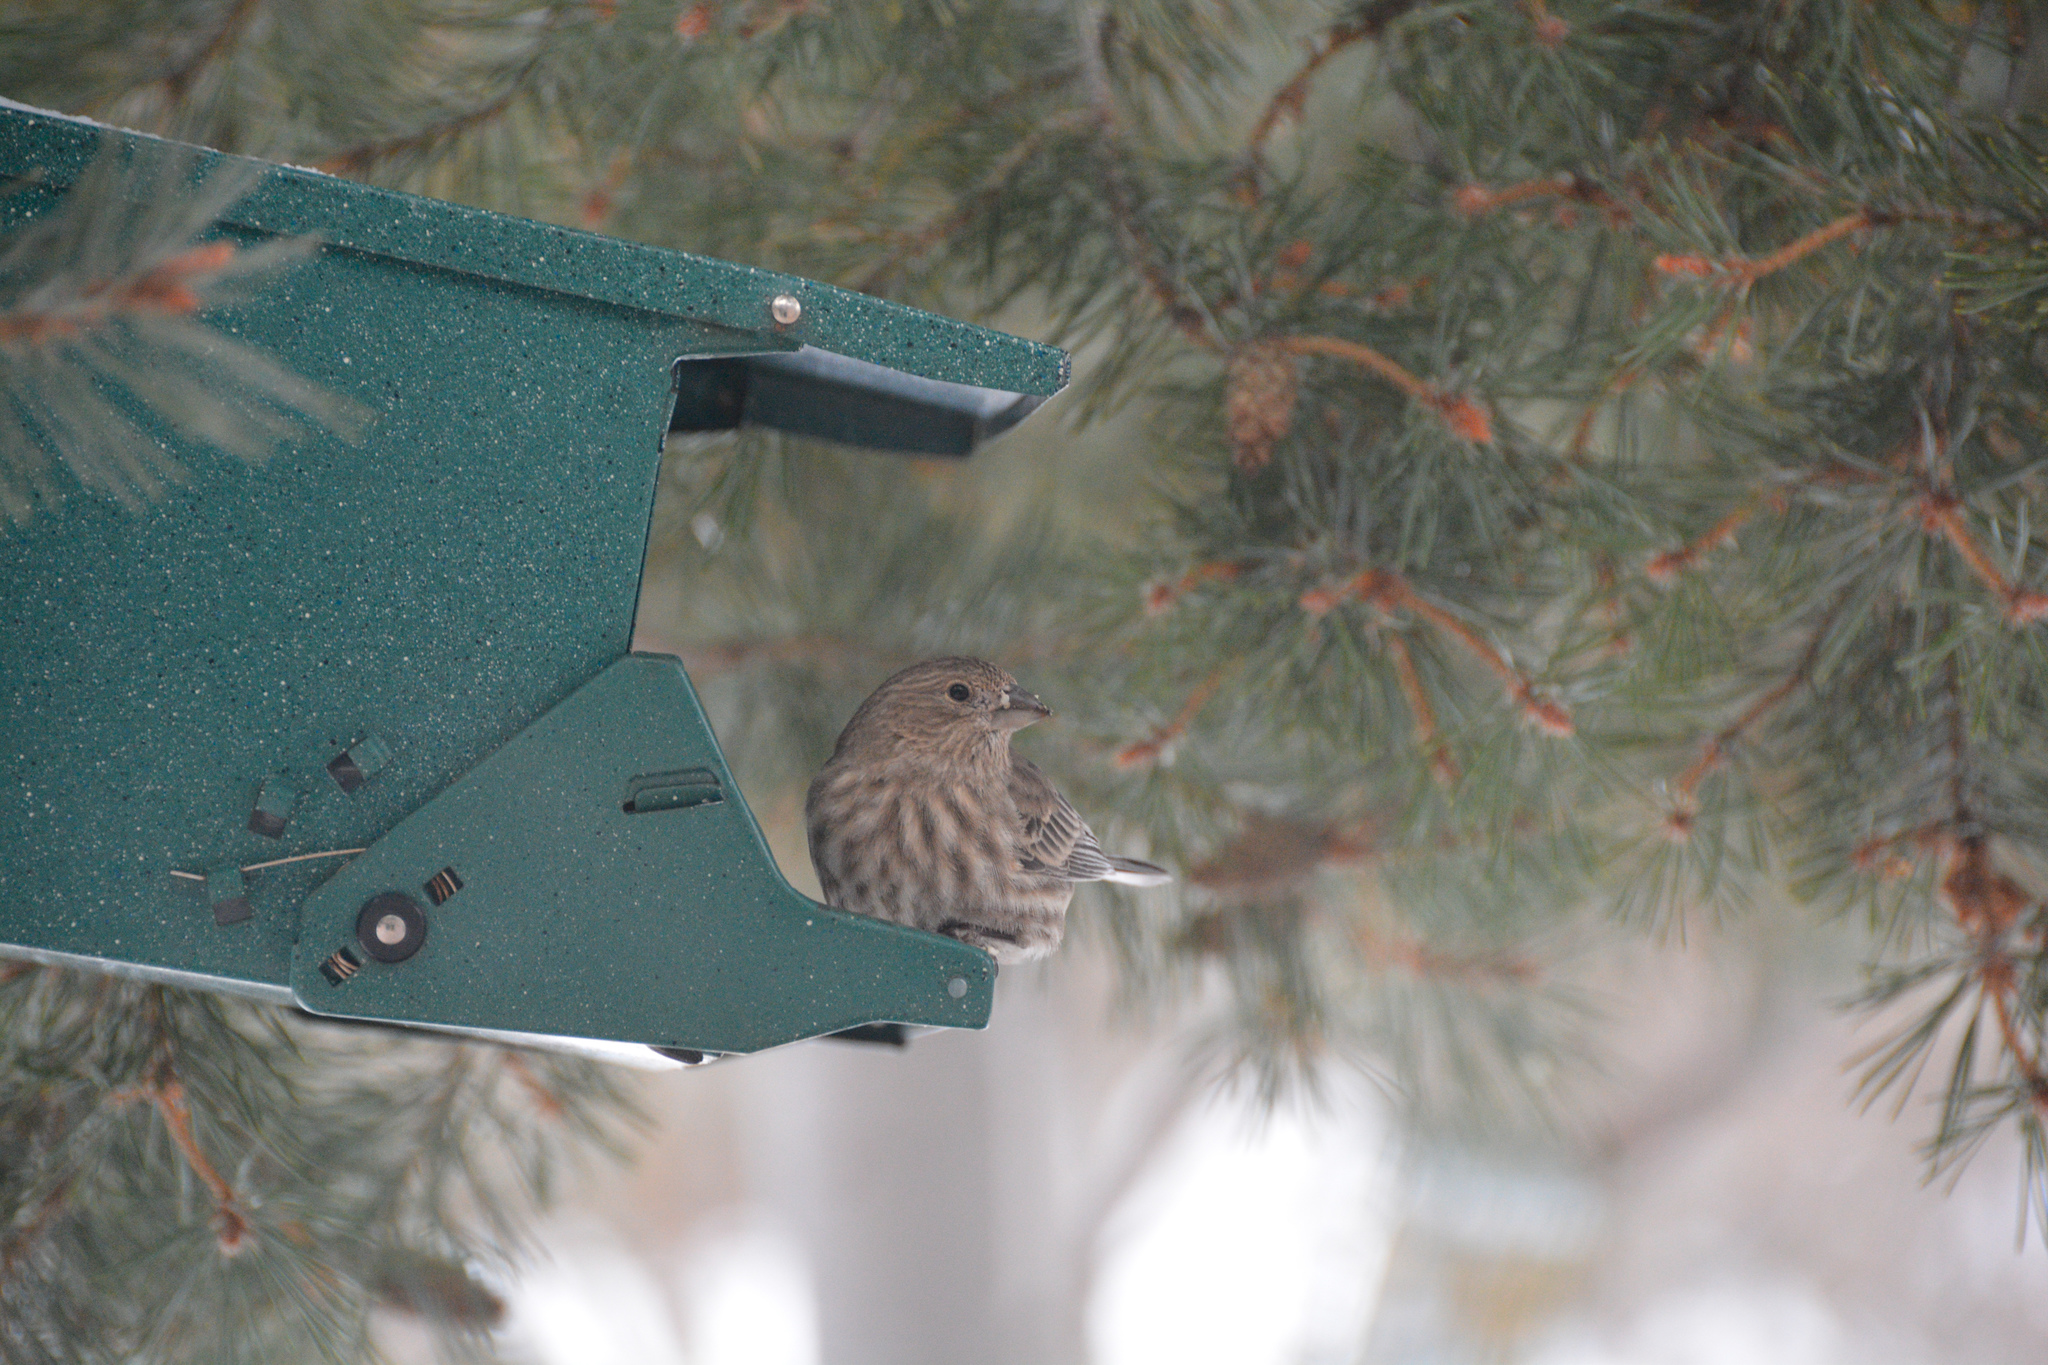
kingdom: Animalia
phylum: Chordata
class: Aves
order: Passeriformes
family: Fringillidae
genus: Haemorhous
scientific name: Haemorhous mexicanus
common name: House finch
